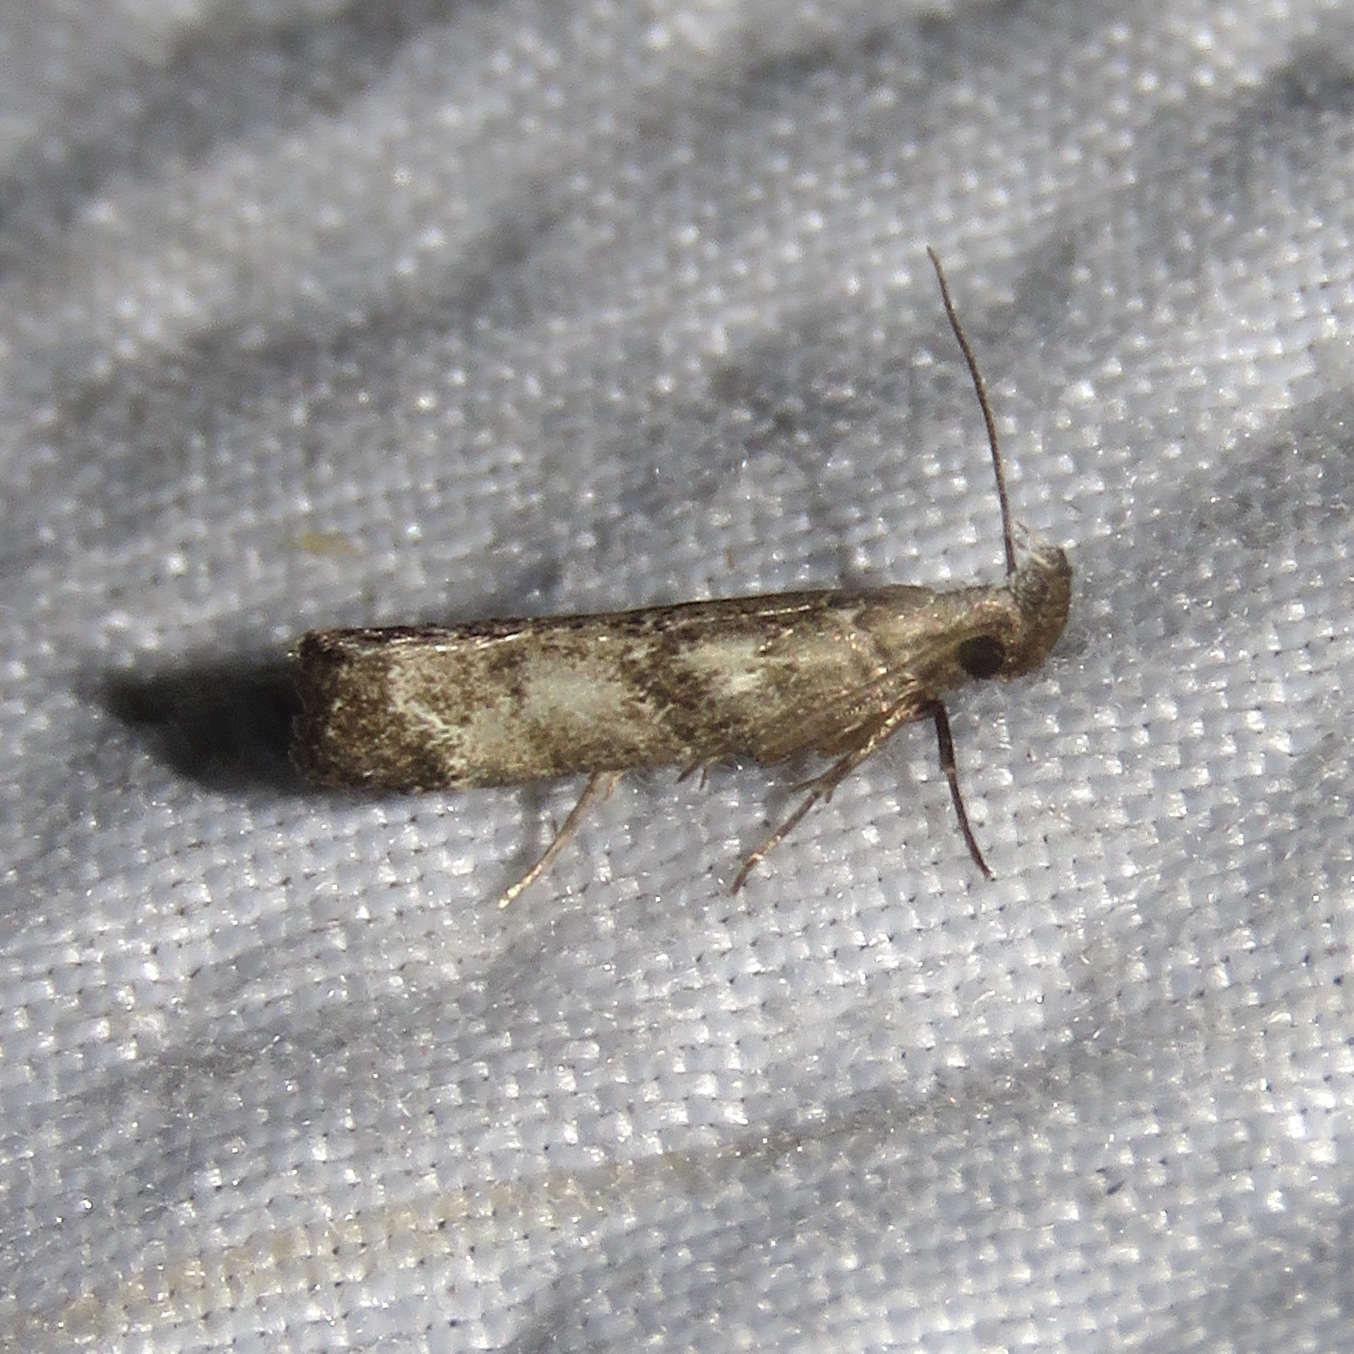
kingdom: Animalia
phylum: Arthropoda
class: Insecta
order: Lepidoptera
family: Gelechiidae
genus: Dichomeris
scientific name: Dichomeris inversella
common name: Inverse dichomeris moth
